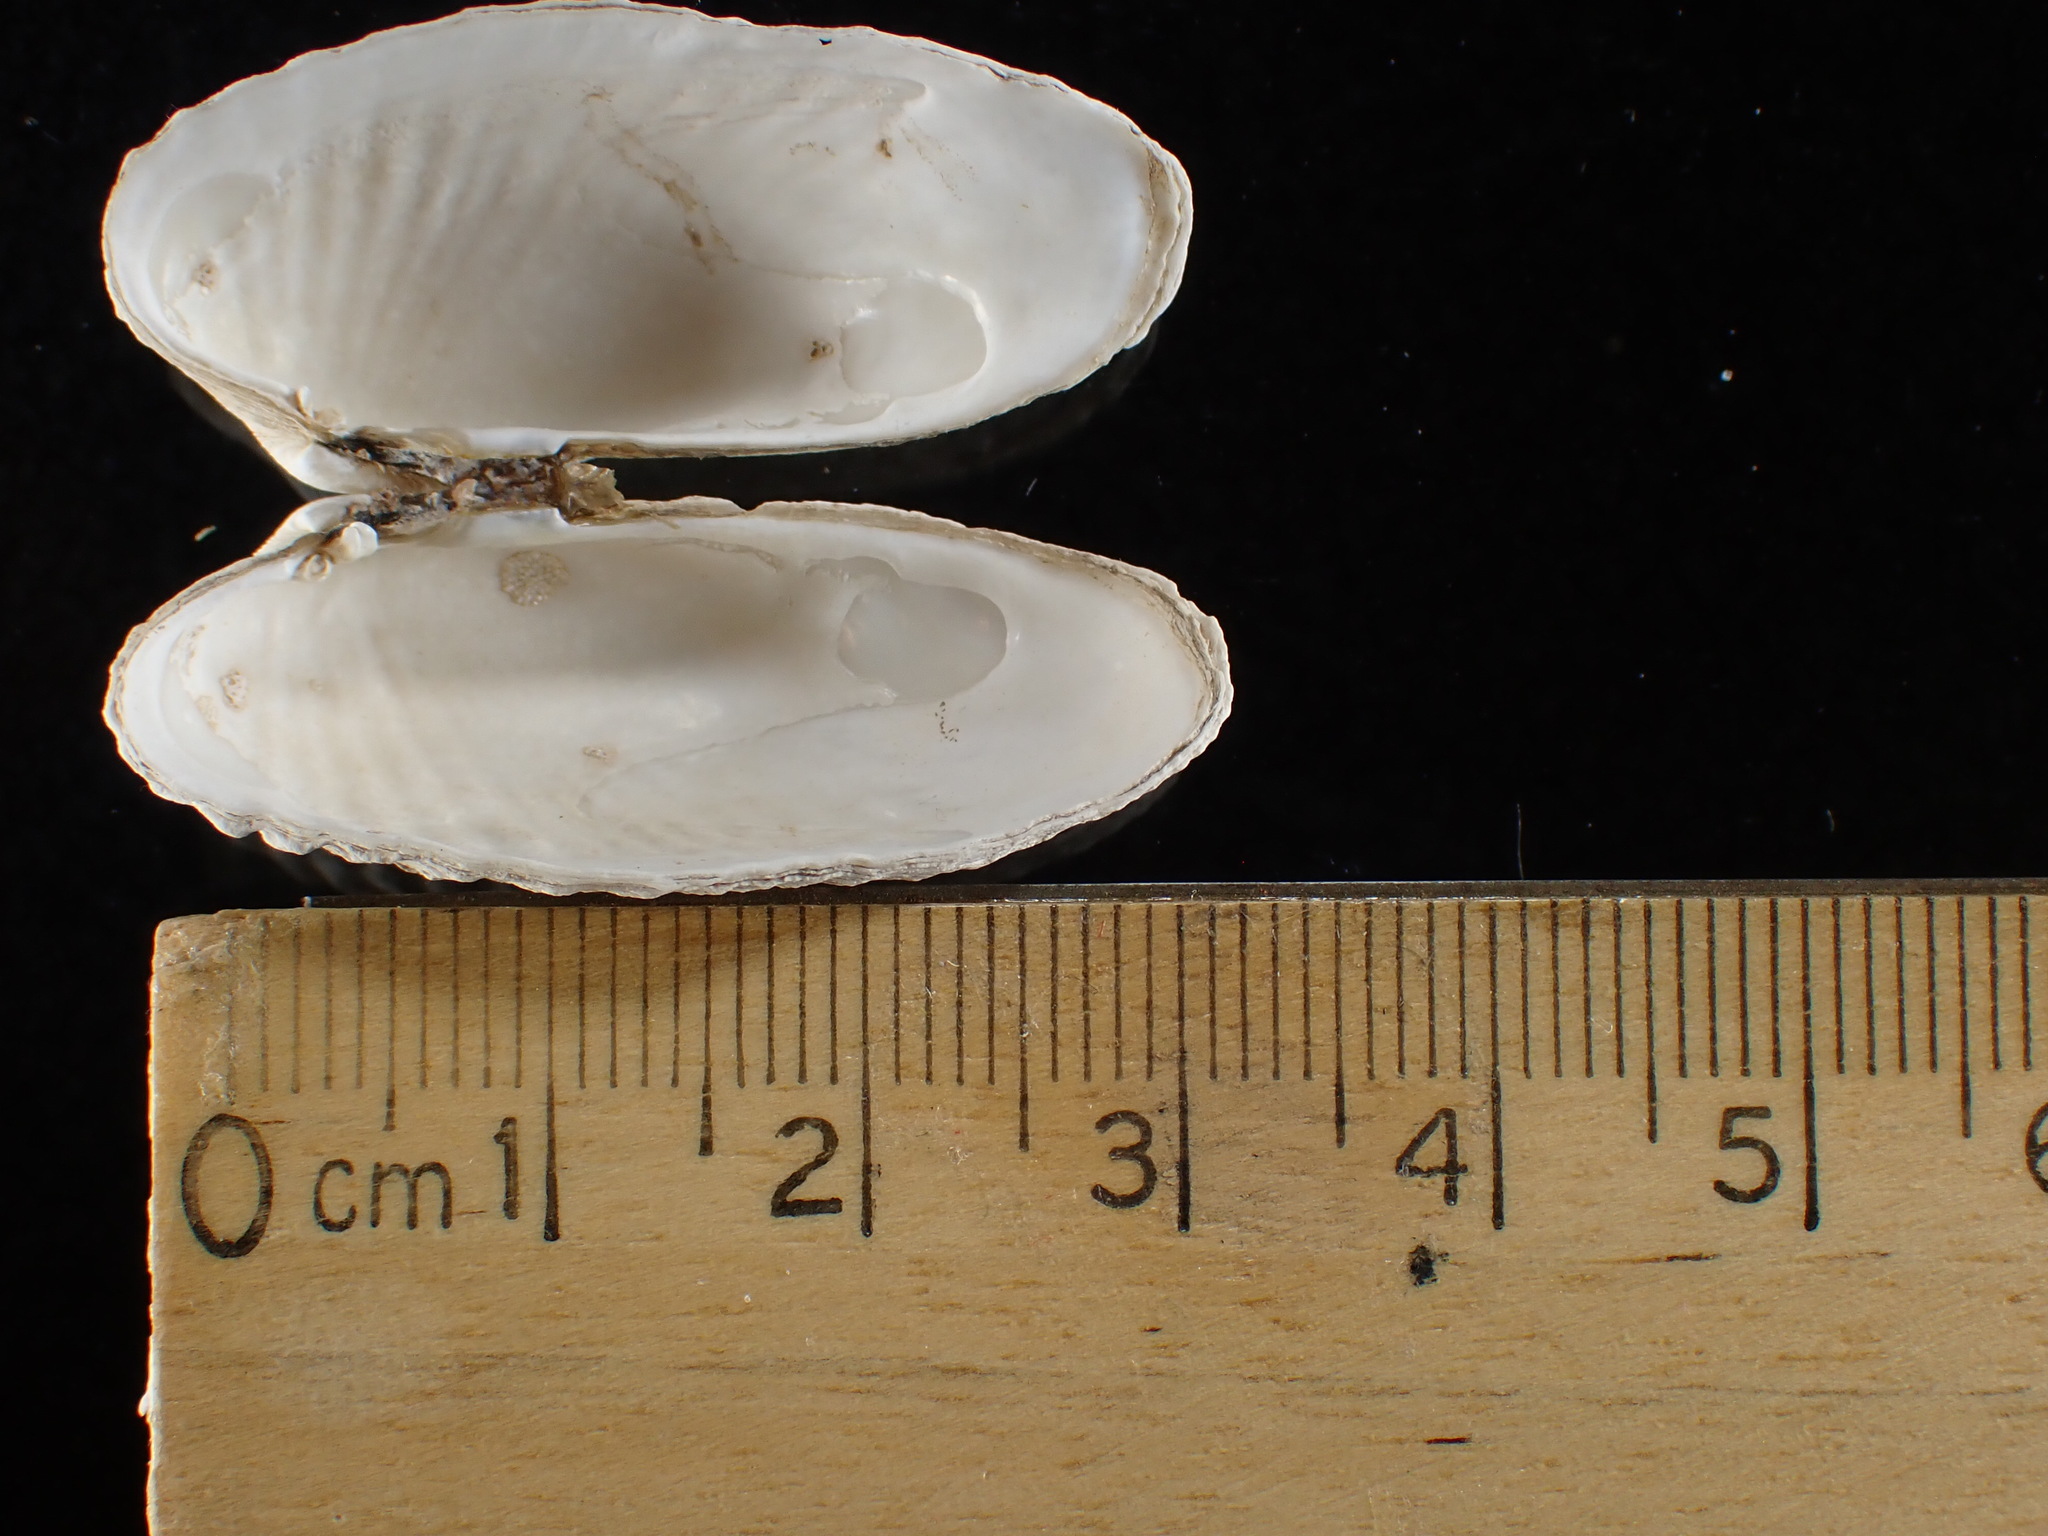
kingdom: Animalia
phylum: Mollusca
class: Bivalvia
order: Venerida
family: Veneridae
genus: Petricolaria
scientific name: Petricolaria pholadiformis
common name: American piddock
